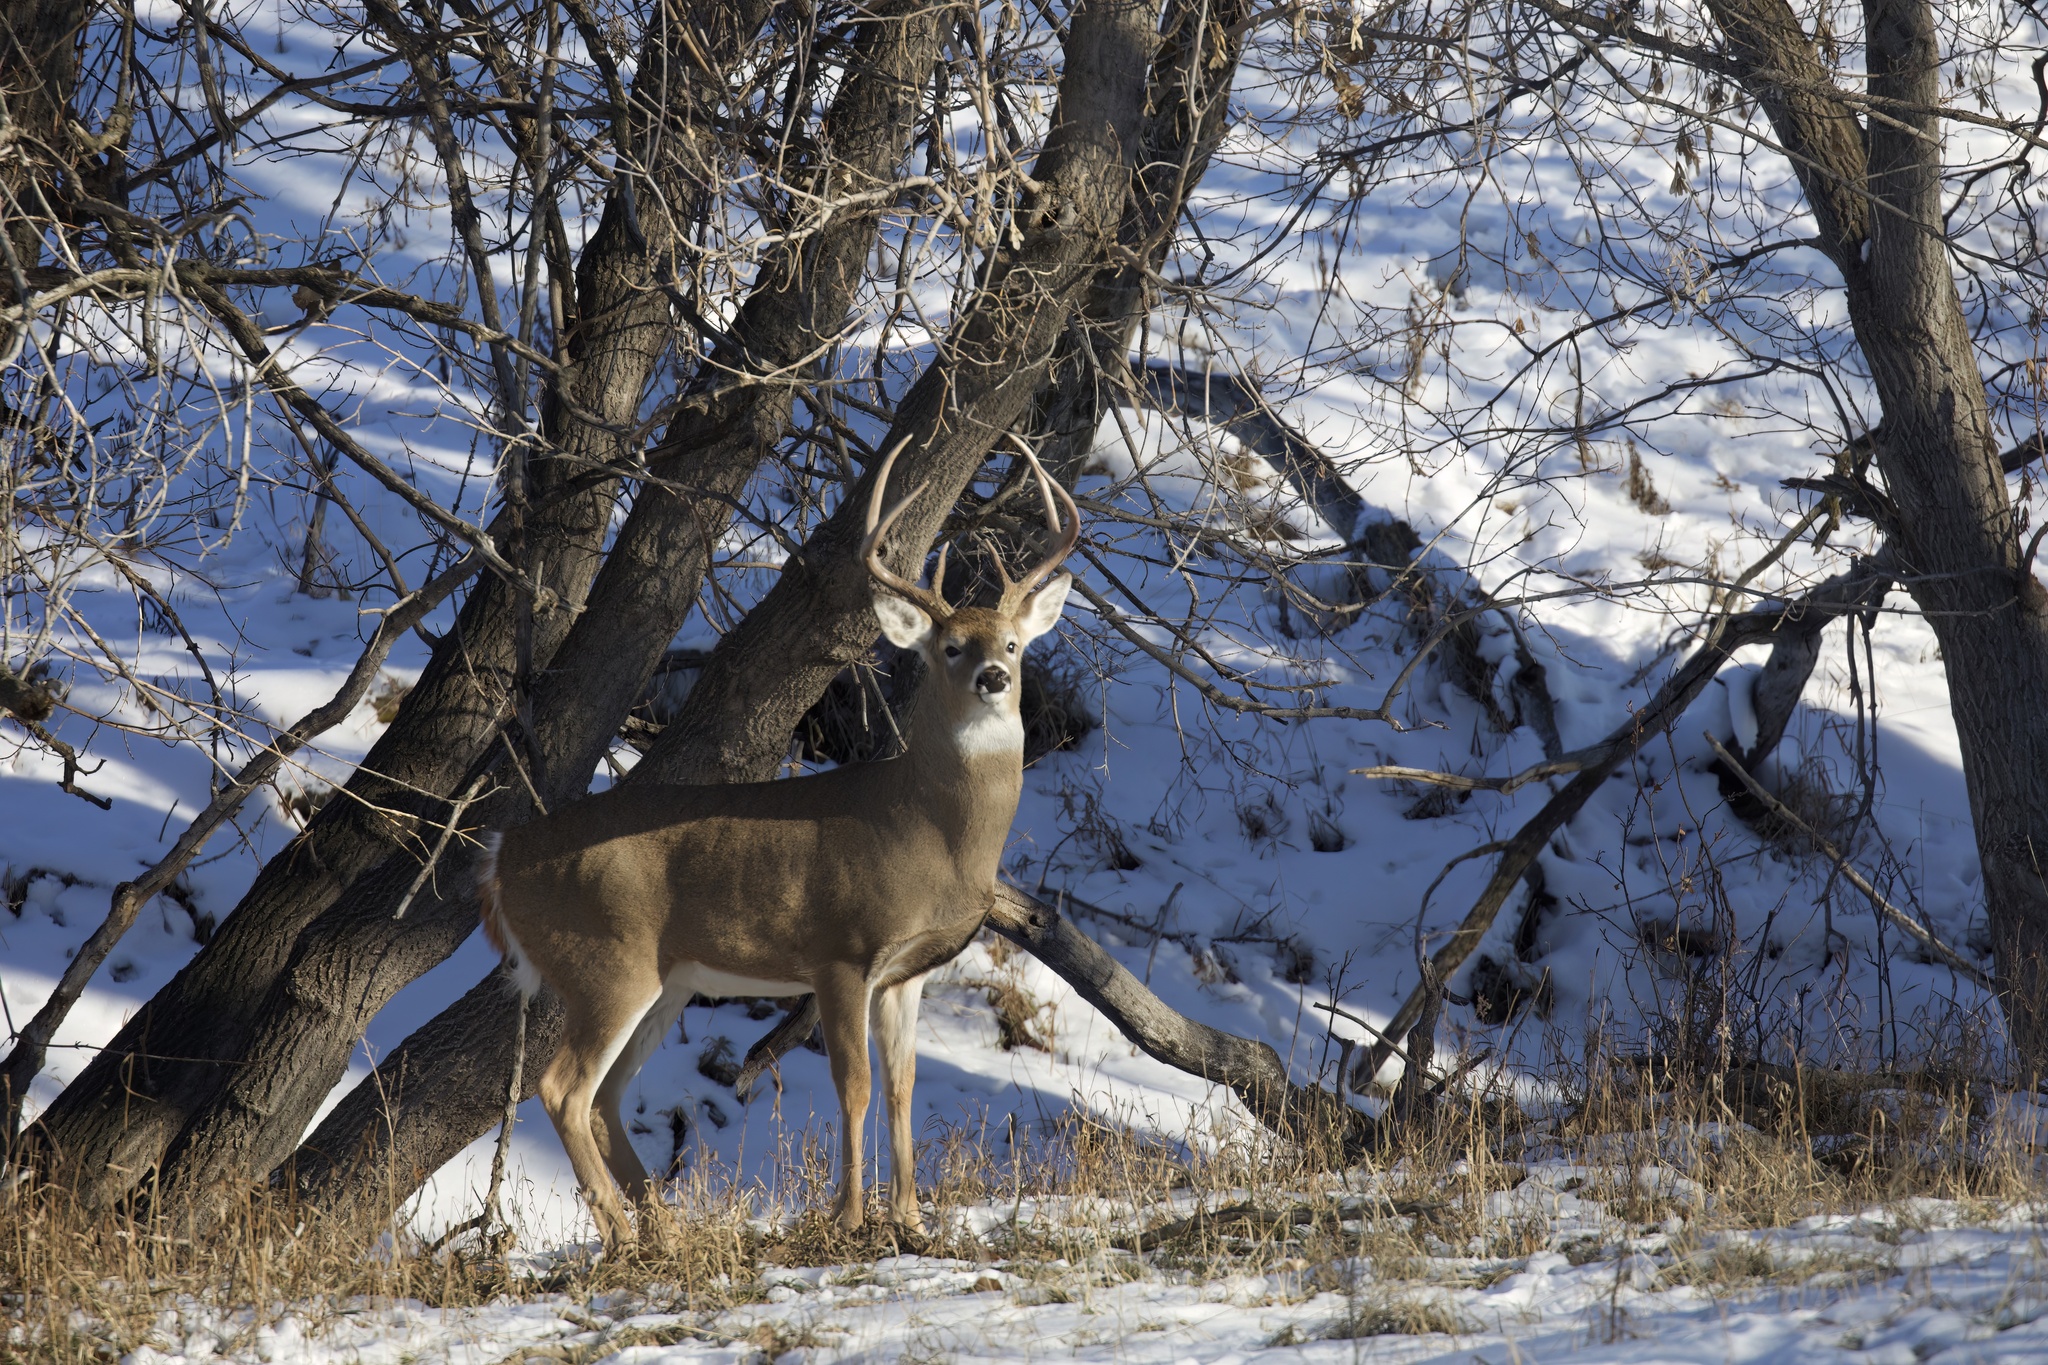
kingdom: Animalia
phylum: Chordata
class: Mammalia
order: Artiodactyla
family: Cervidae
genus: Odocoileus
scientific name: Odocoileus virginianus
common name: White-tailed deer
